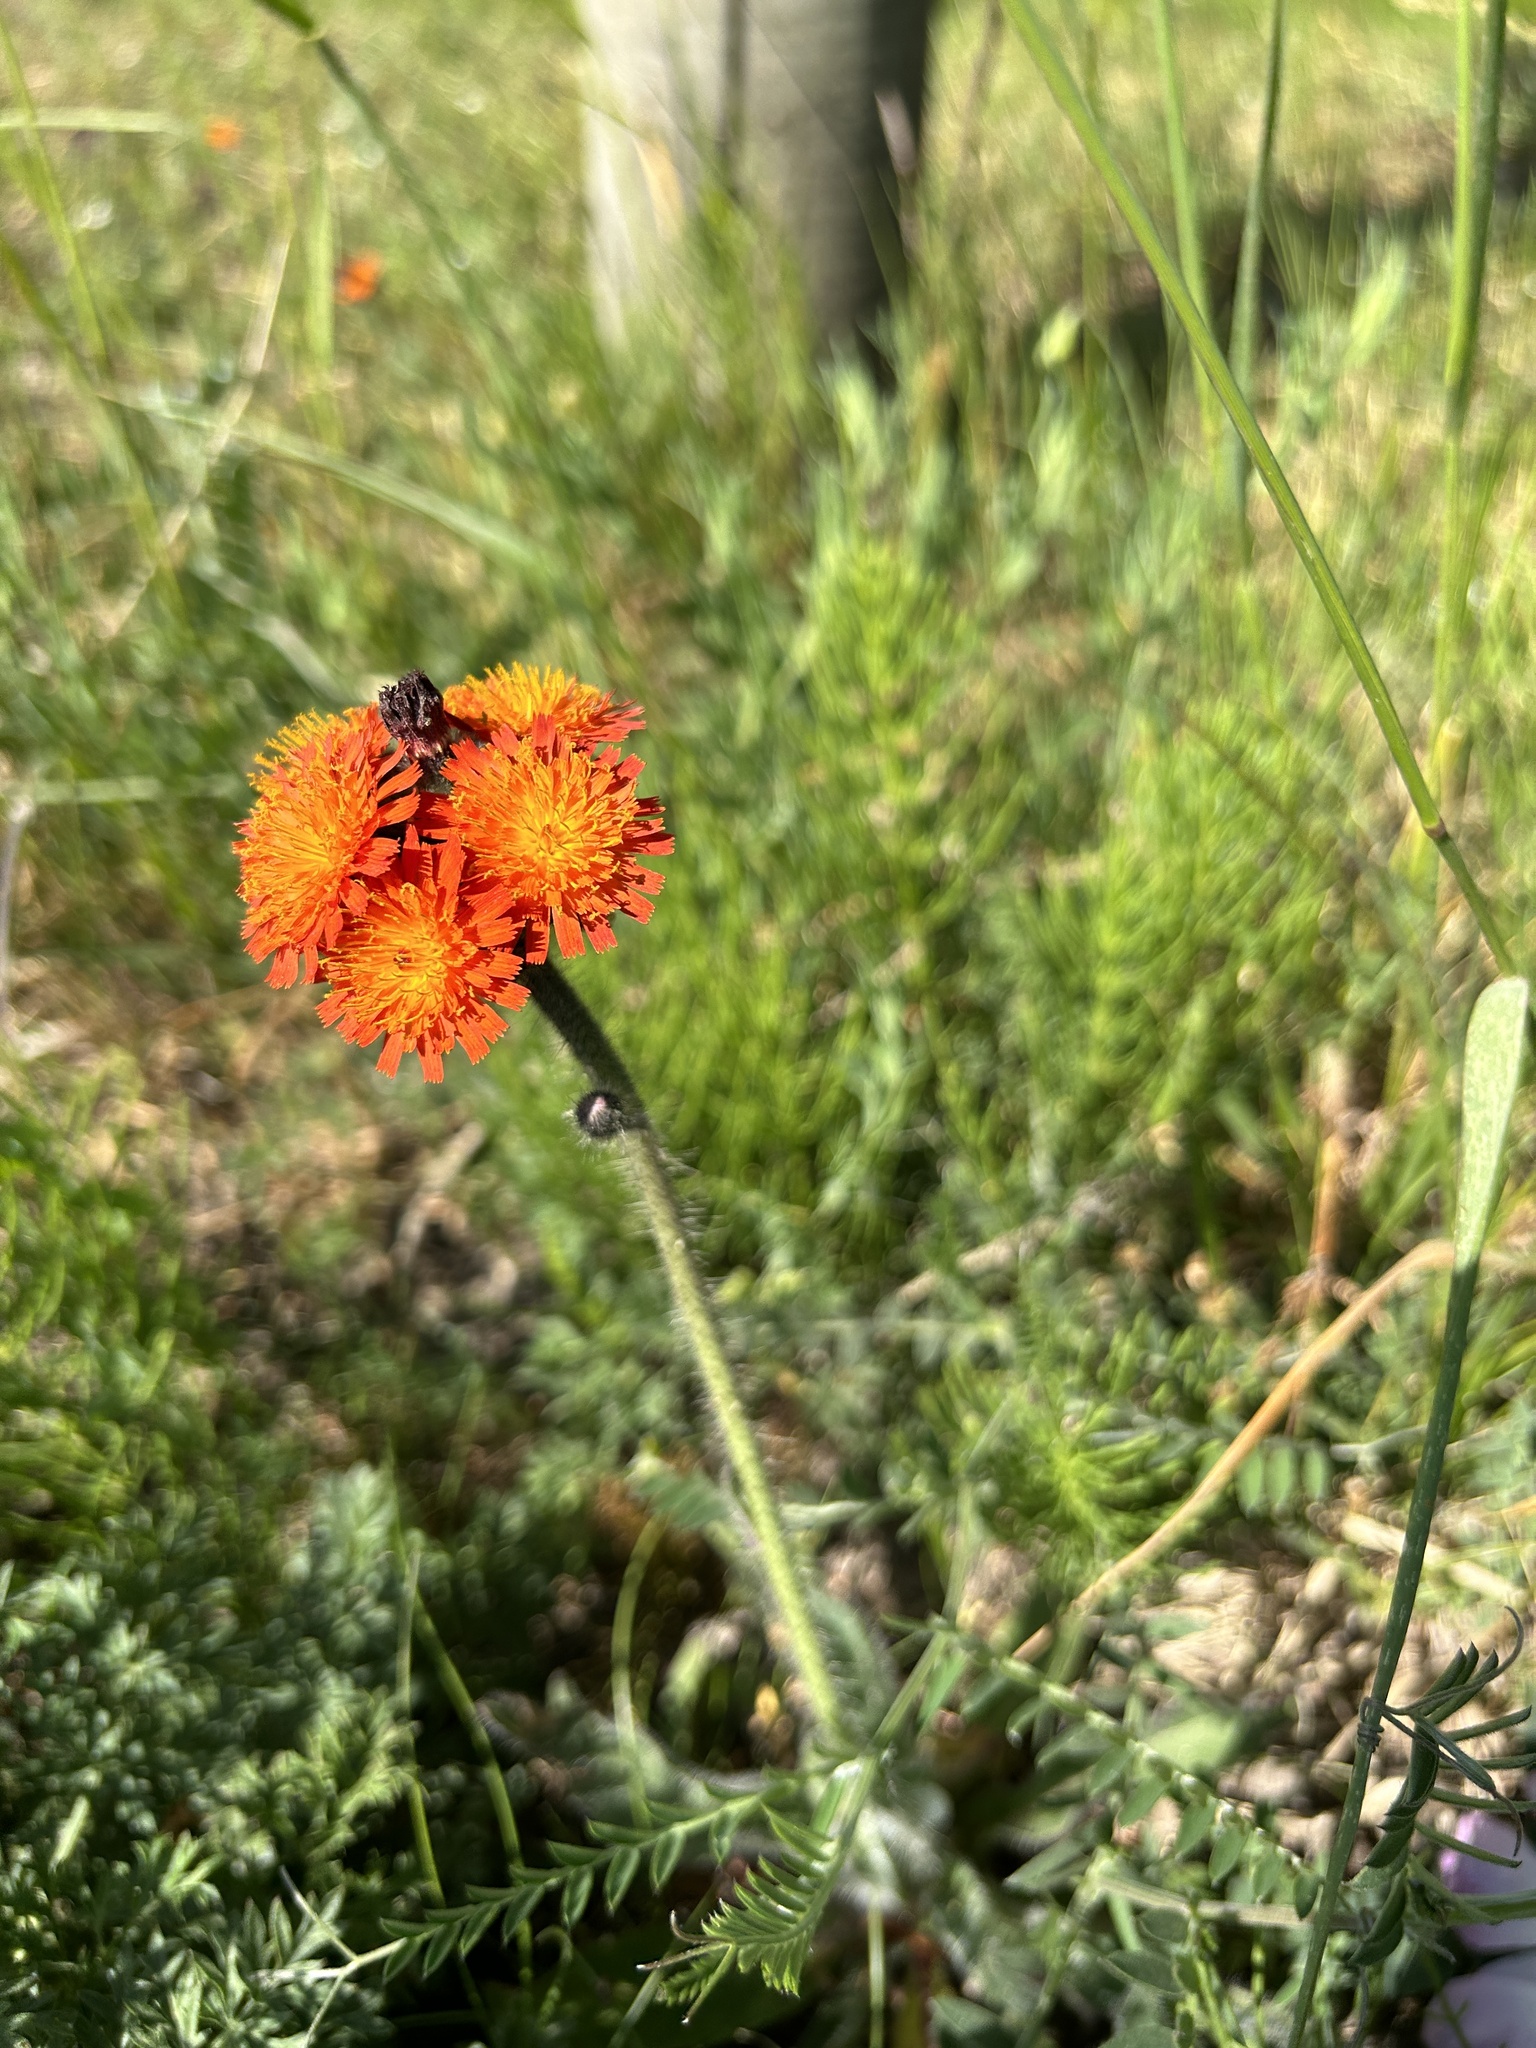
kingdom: Plantae
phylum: Tracheophyta
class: Magnoliopsida
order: Asterales
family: Asteraceae
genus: Pilosella
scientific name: Pilosella aurantiaca
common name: Fox-and-cubs
